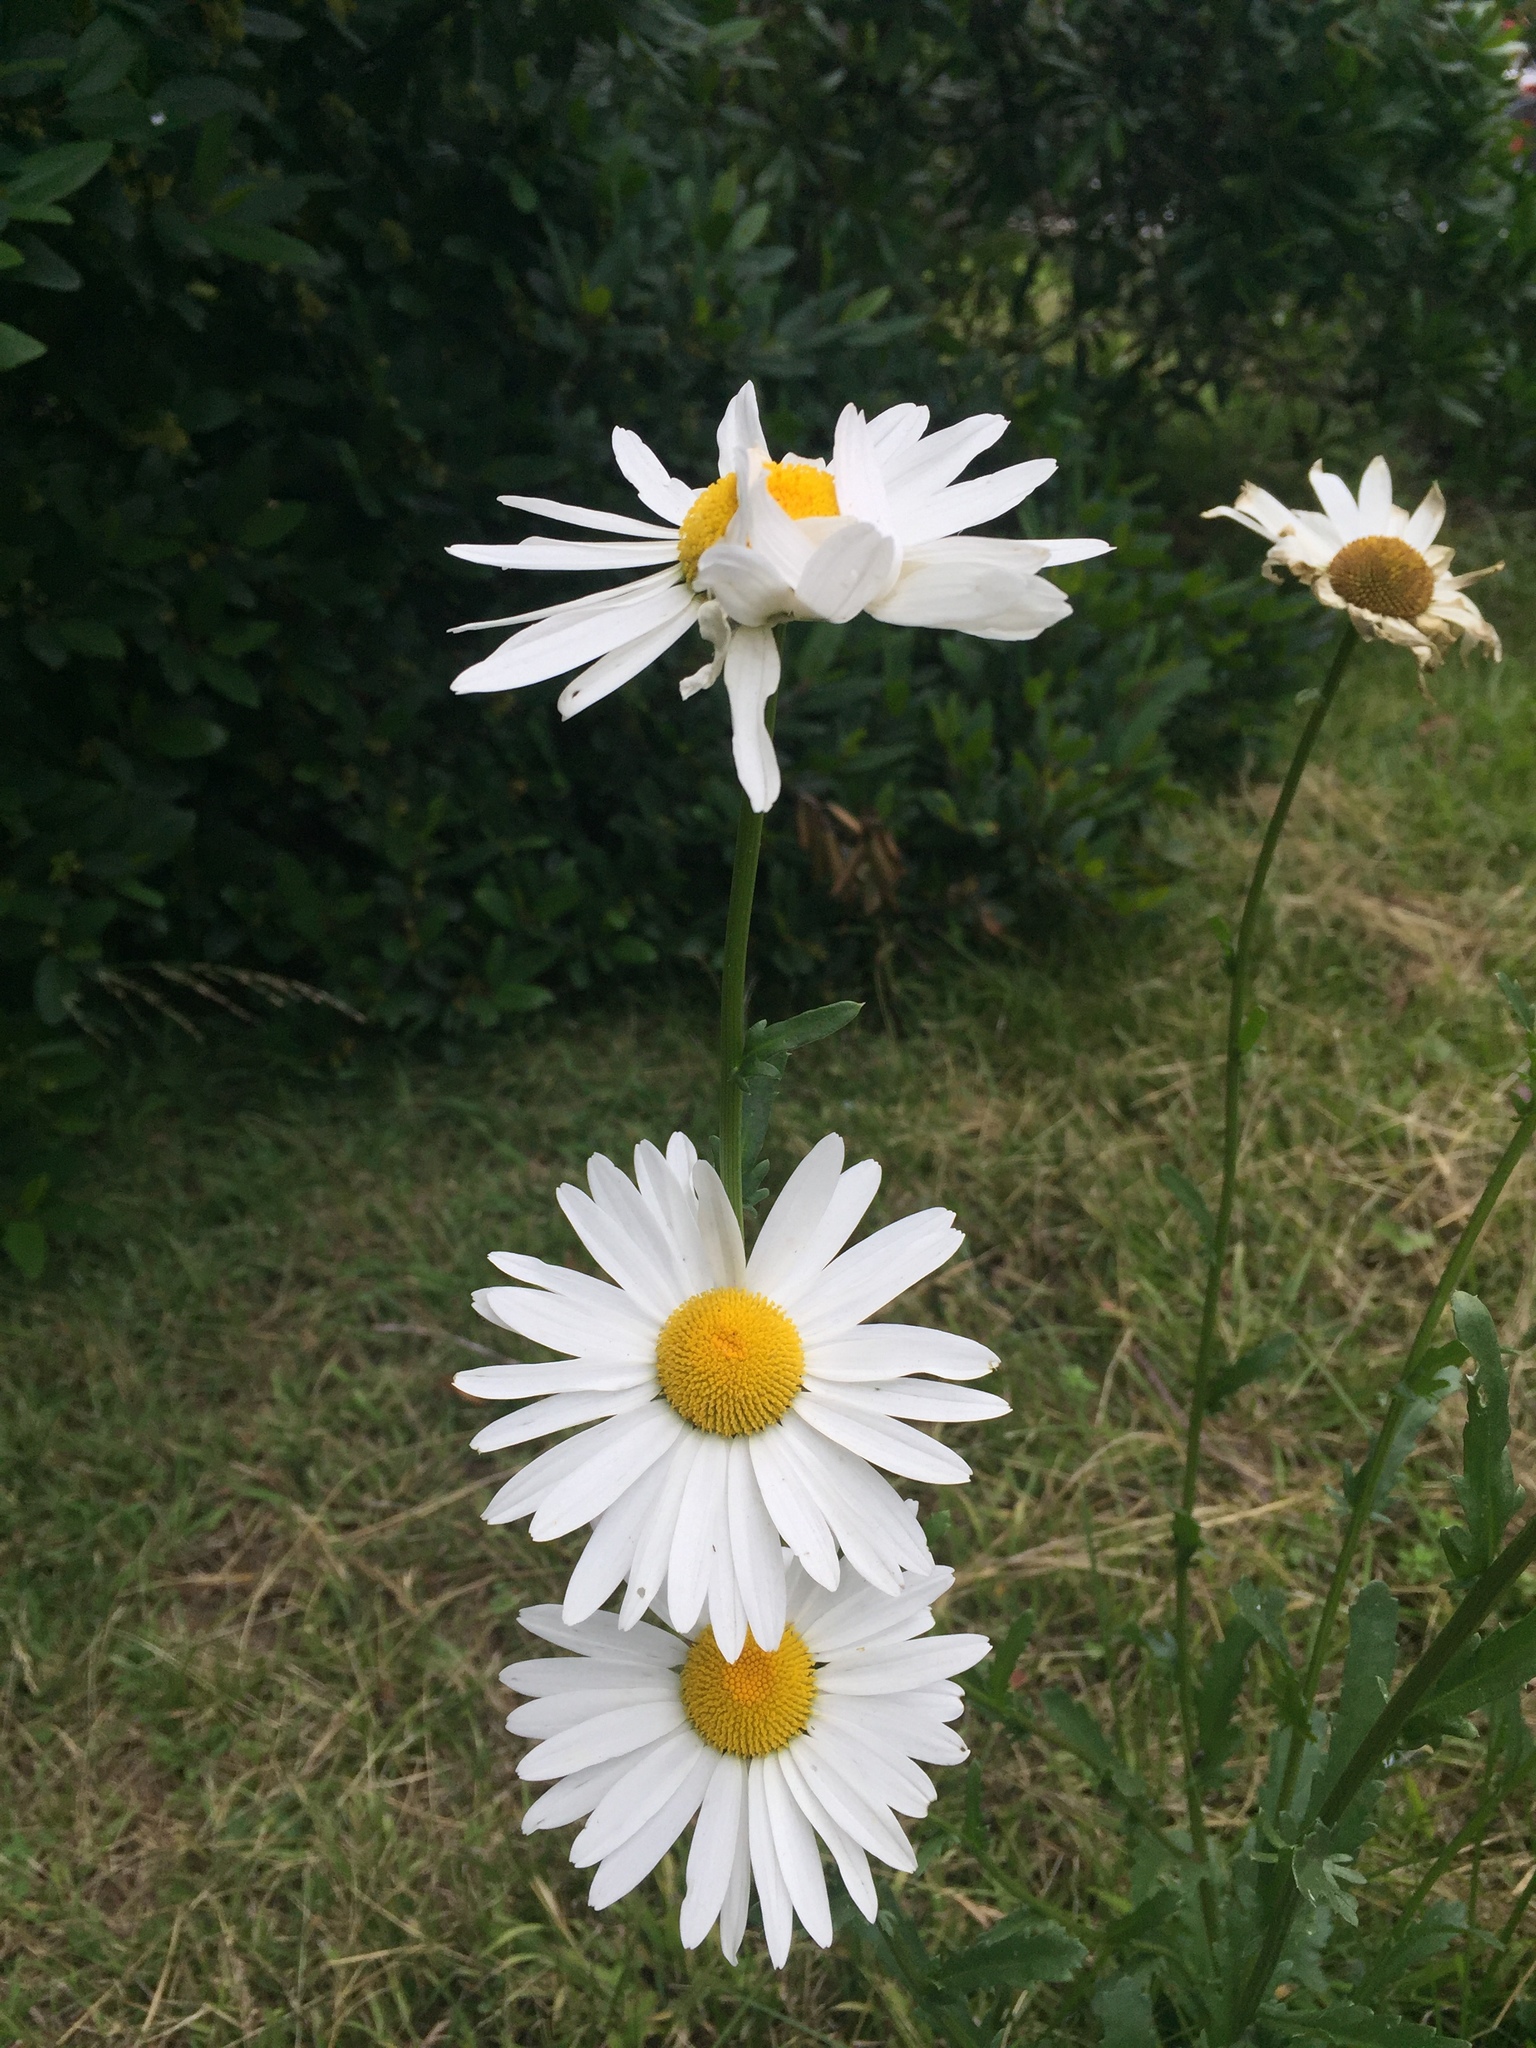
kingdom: Plantae
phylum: Tracheophyta
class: Magnoliopsida
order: Asterales
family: Asteraceae
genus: Leucanthemum
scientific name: Leucanthemum vulgare
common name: Oxeye daisy
